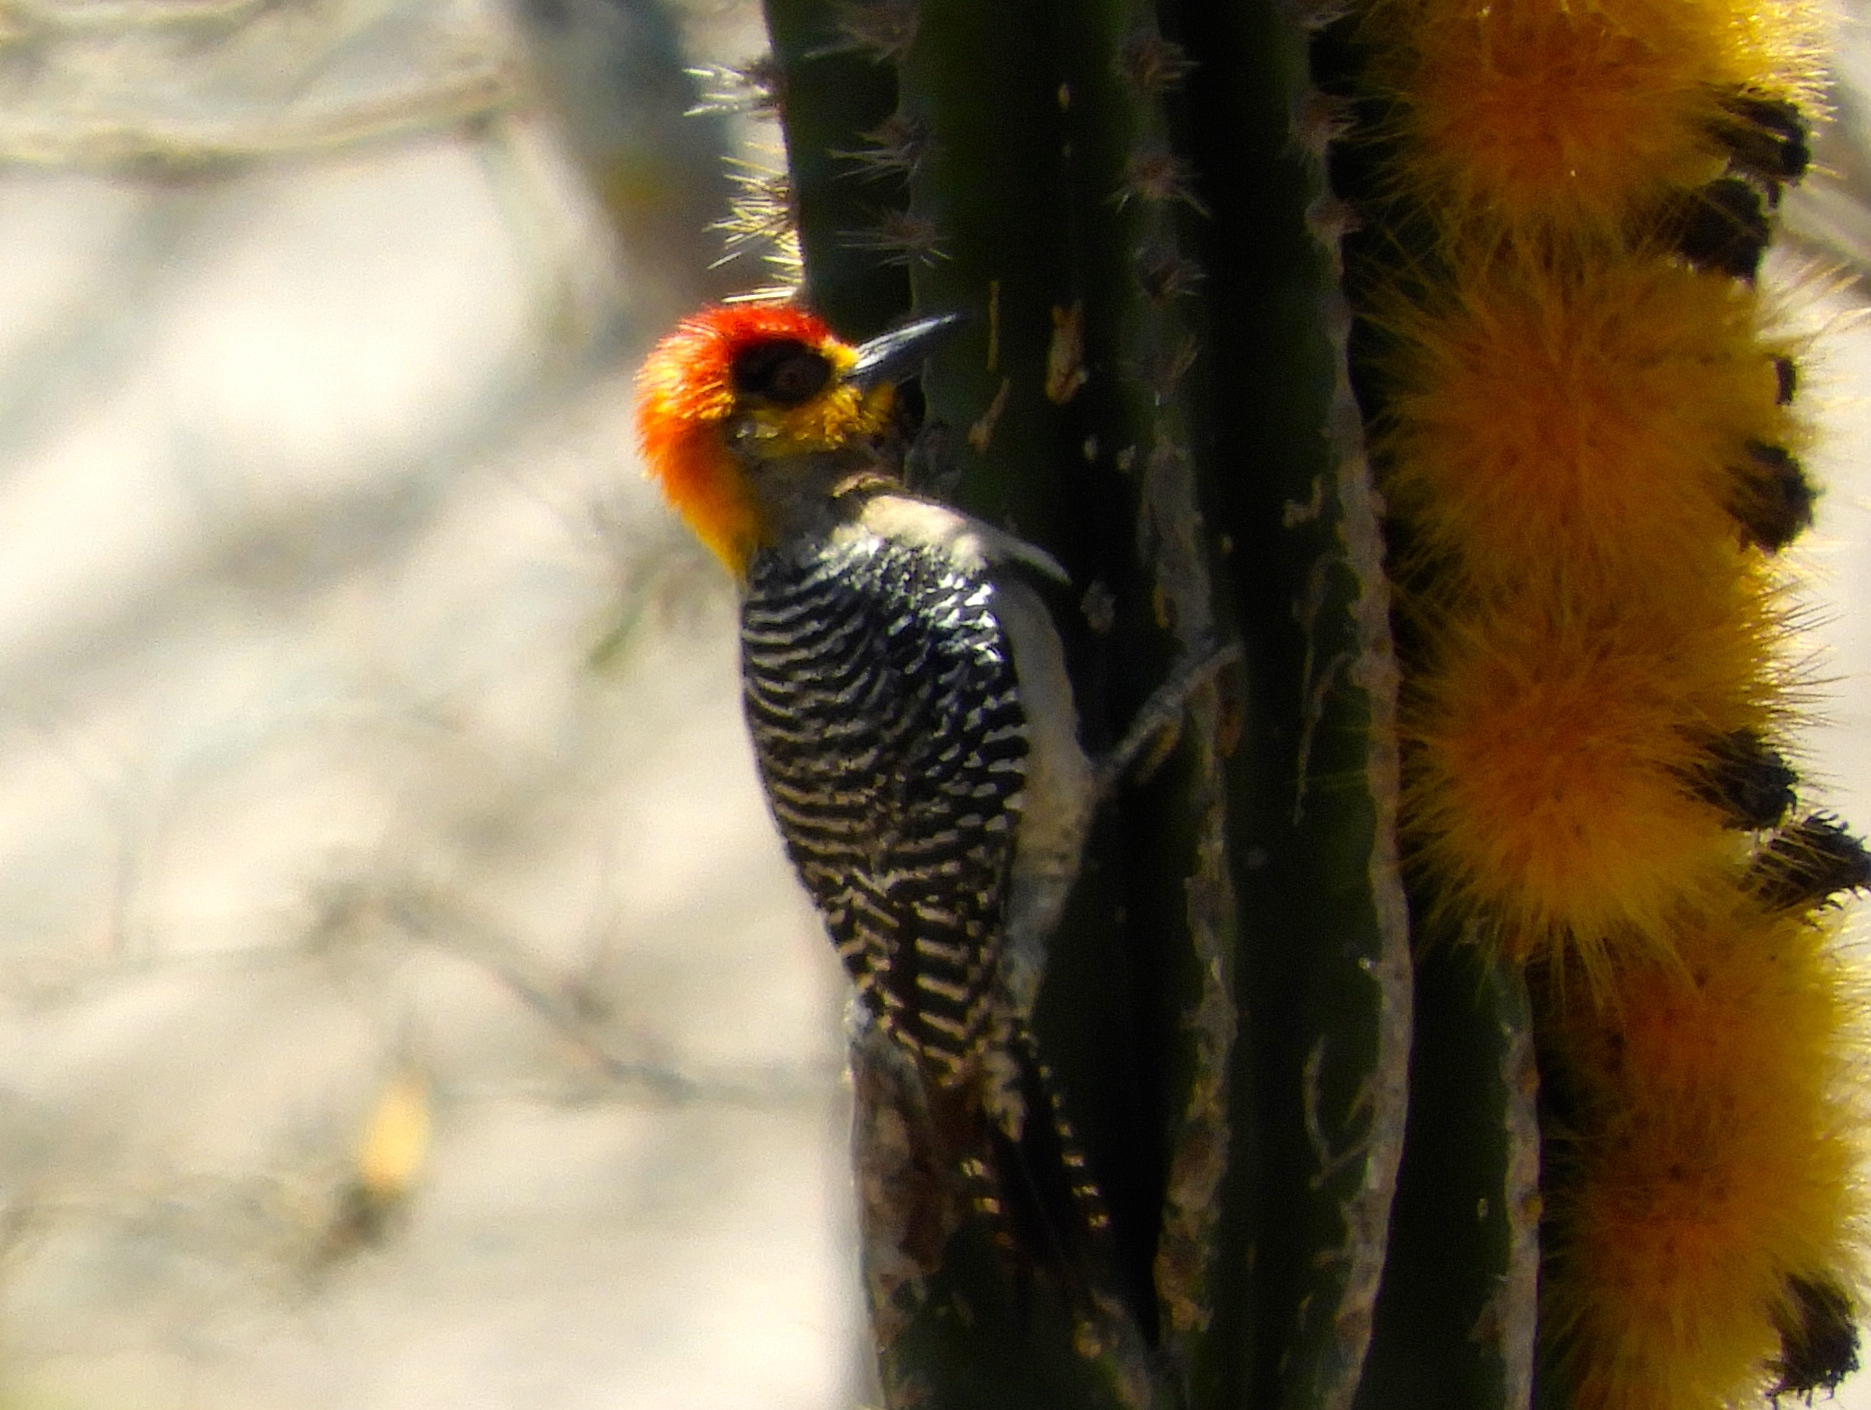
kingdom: Animalia
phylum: Chordata
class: Aves
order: Piciformes
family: Picidae
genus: Melanerpes
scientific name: Melanerpes chrysogenys
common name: Golden-cheeked woodpecker
